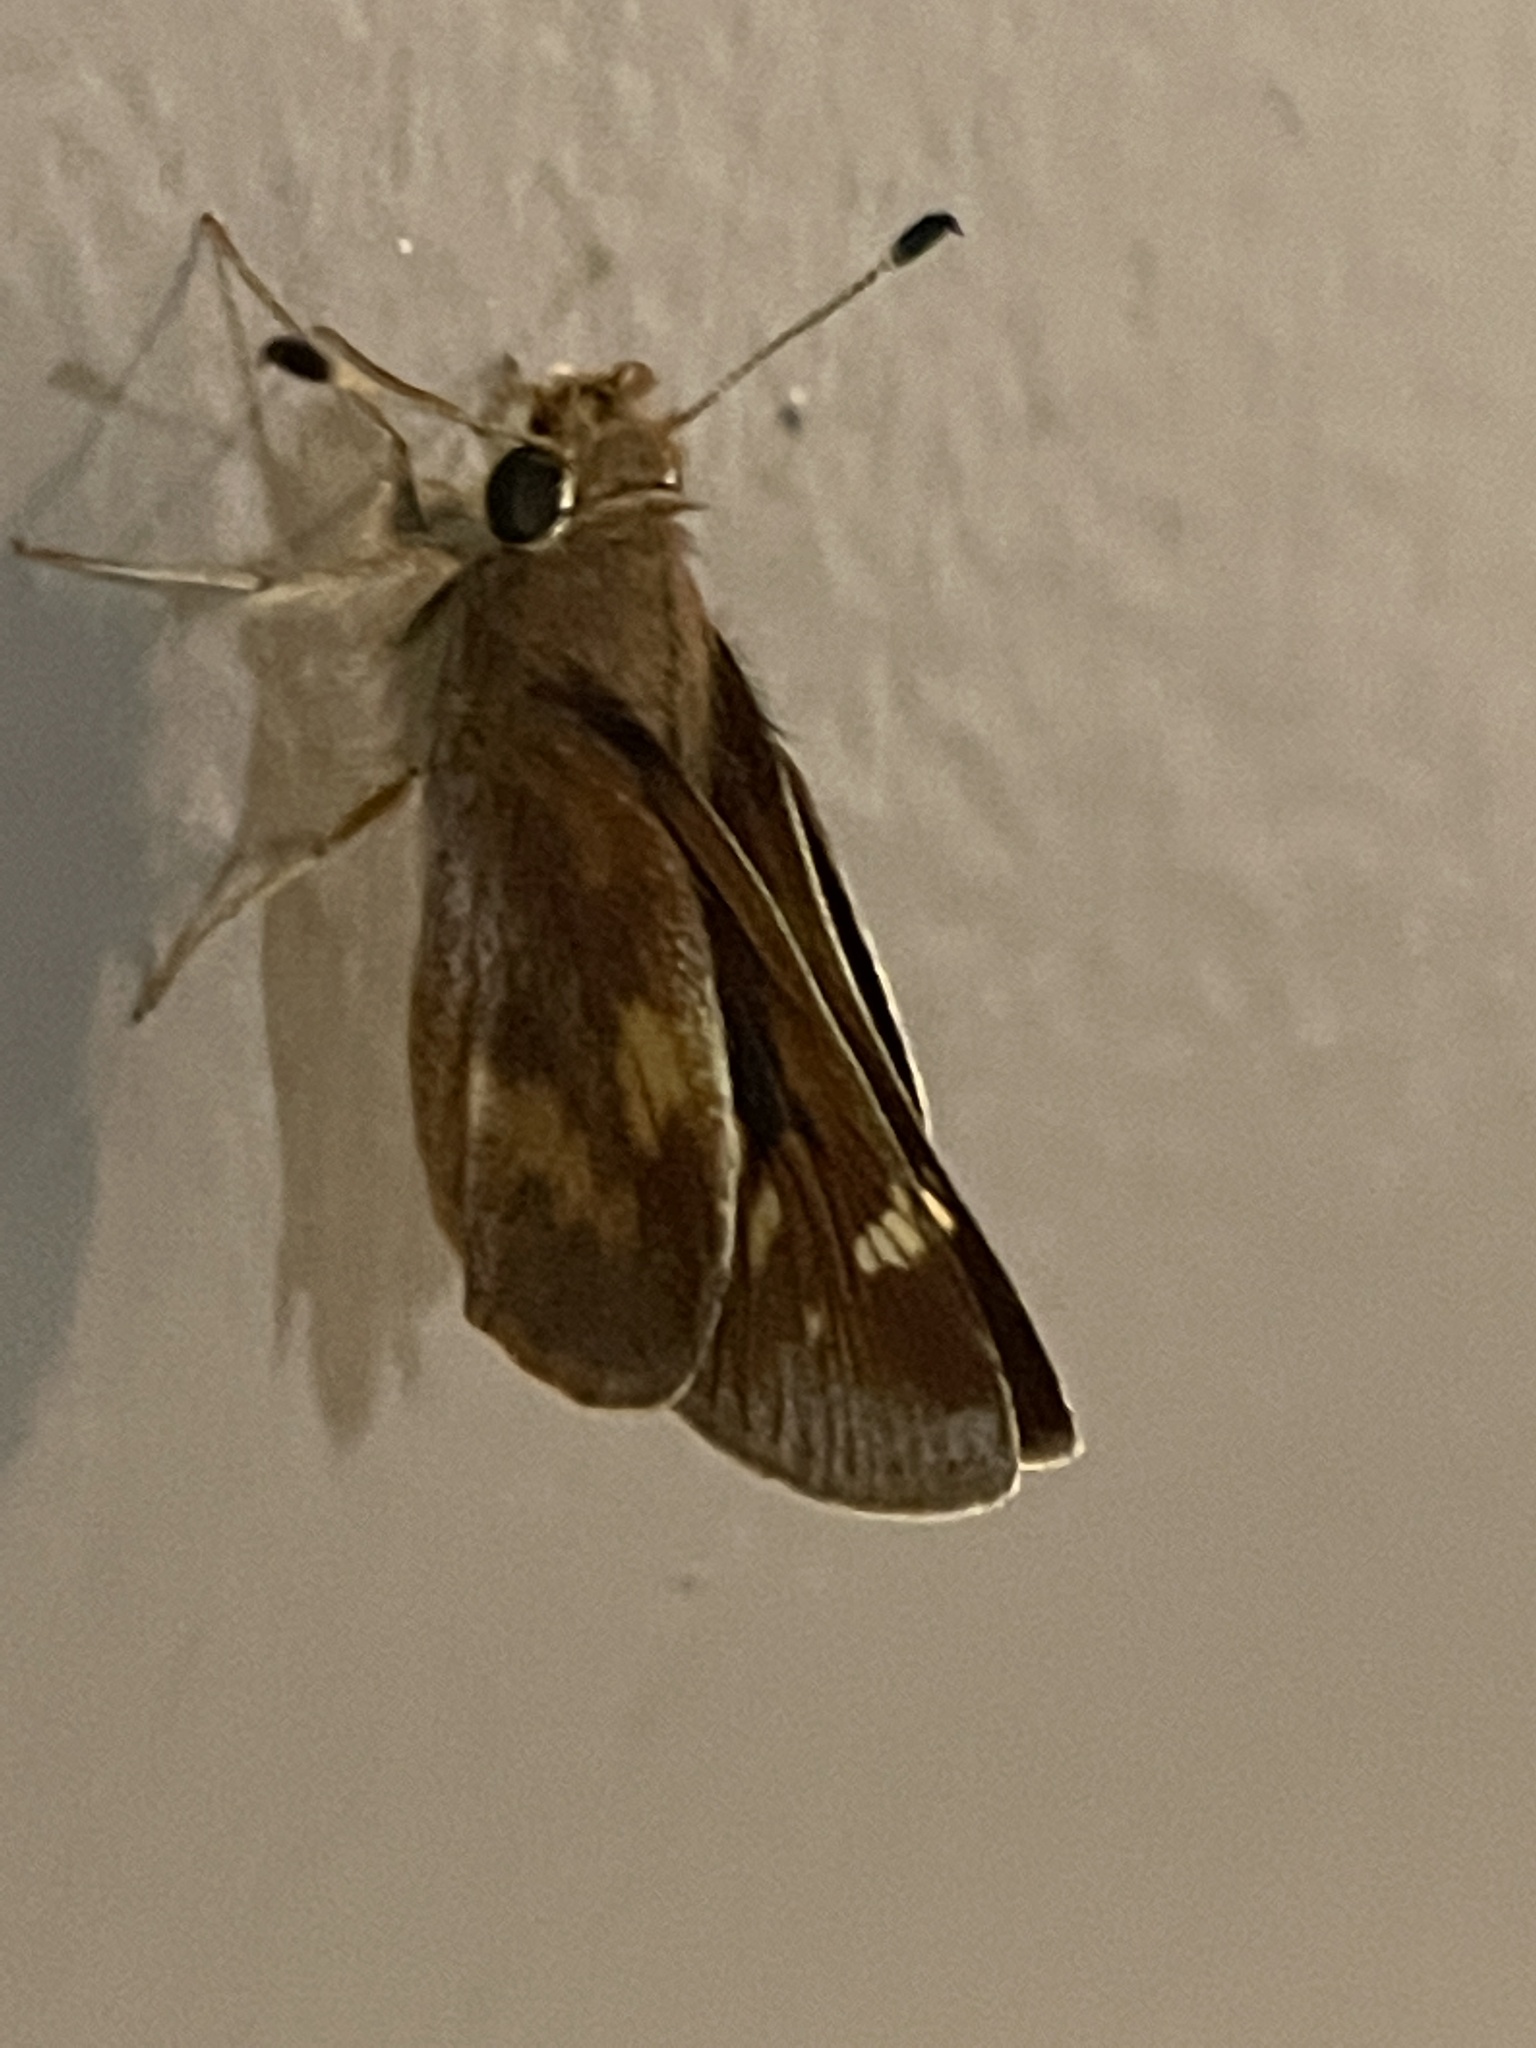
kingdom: Animalia
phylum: Arthropoda
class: Insecta
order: Lepidoptera
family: Hesperiidae
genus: Lon
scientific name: Lon melane
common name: Umber skipper
